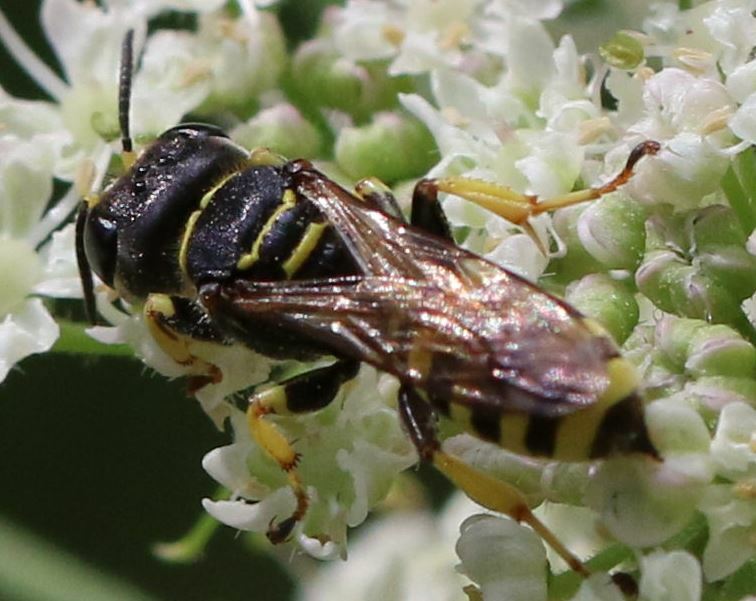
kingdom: Animalia
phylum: Arthropoda
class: Insecta
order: Hymenoptera
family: Crabronidae
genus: Ectemnius
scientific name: Ectemnius lituratus
